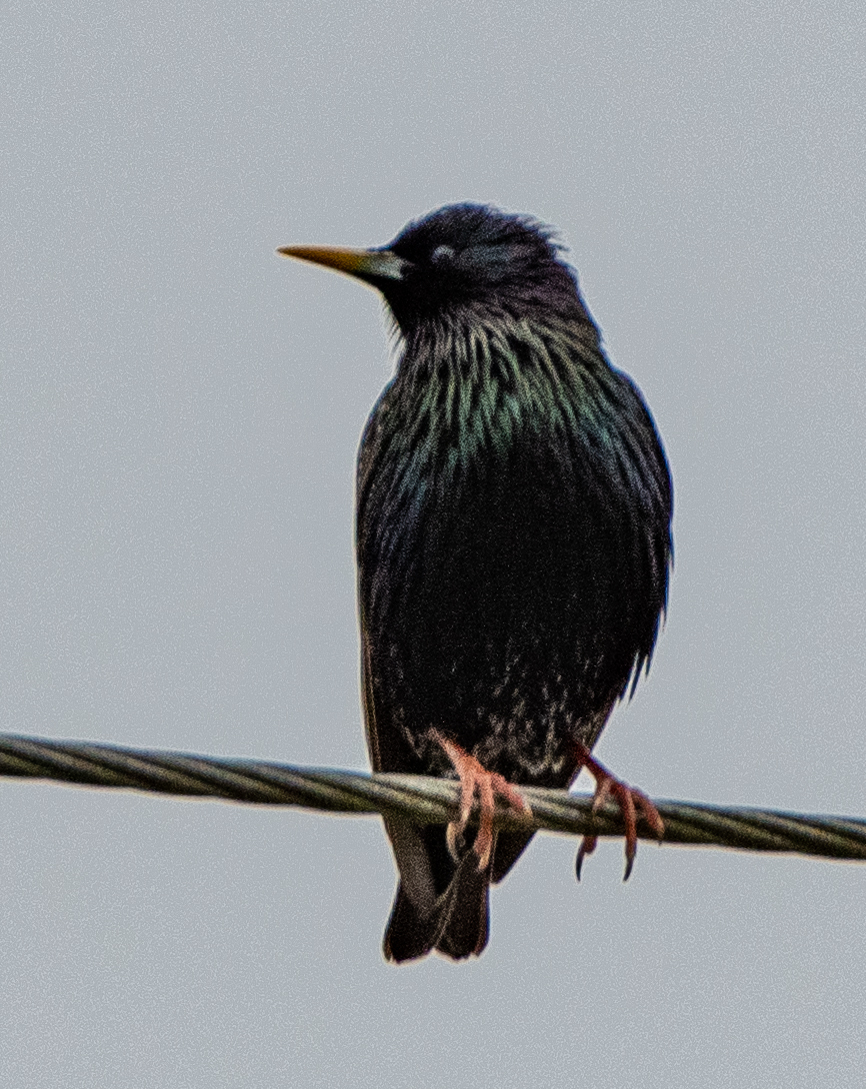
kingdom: Animalia
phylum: Chordata
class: Aves
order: Passeriformes
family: Sturnidae
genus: Sturnus
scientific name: Sturnus vulgaris
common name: Common starling
